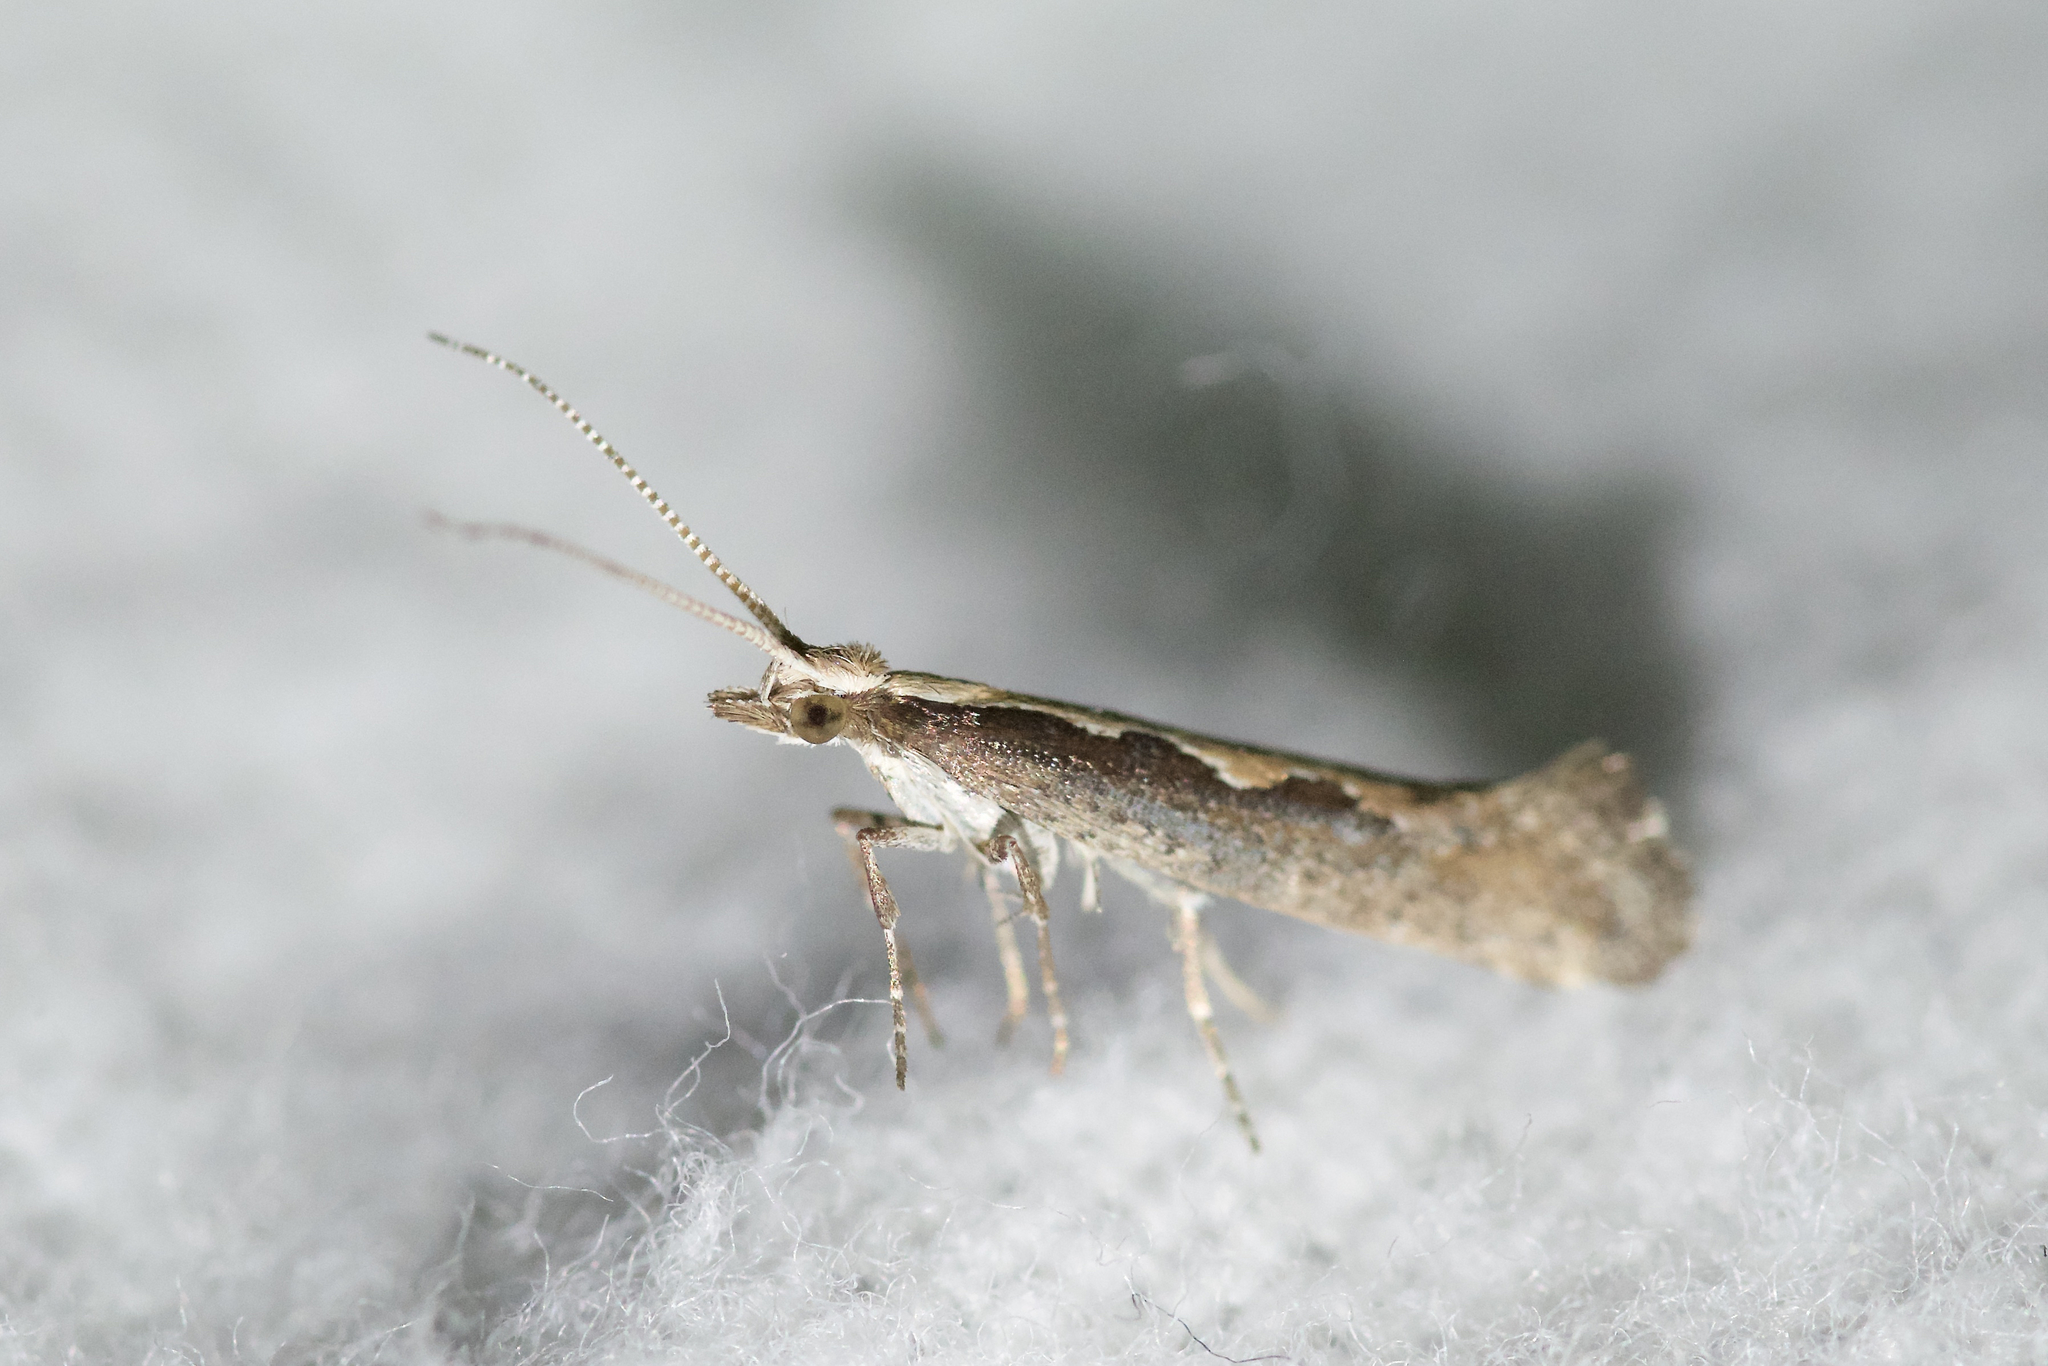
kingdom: Animalia
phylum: Arthropoda
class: Insecta
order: Lepidoptera
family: Plutellidae
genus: Plutella
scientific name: Plutella xylostella
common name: Diamond-back moth
